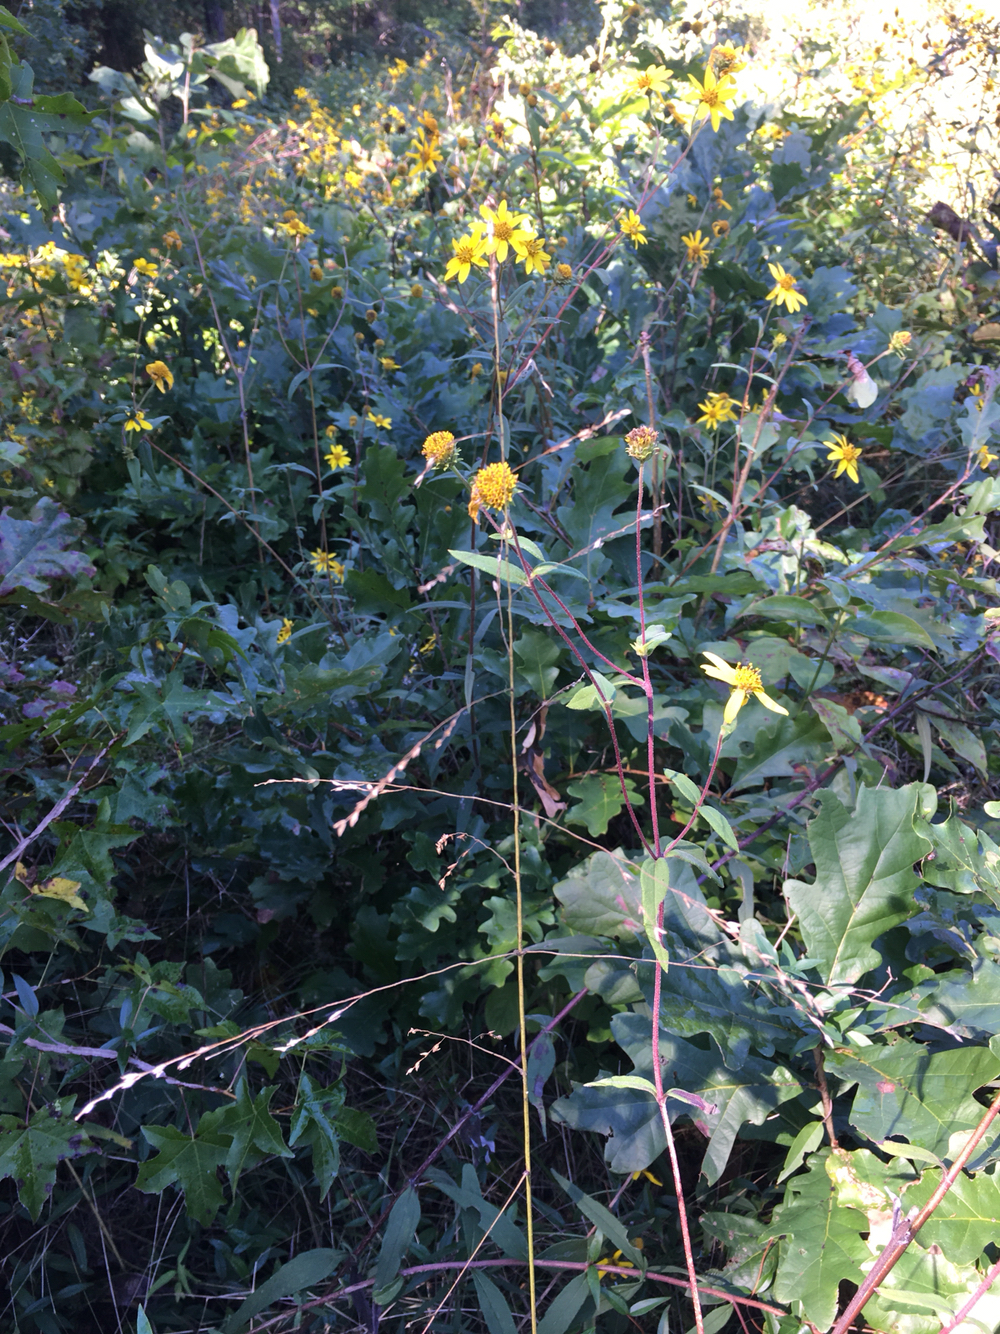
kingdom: Plantae
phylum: Tracheophyta
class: Liliopsida
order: Poales
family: Poaceae
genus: Tridens
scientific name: Tridens chapmanii
